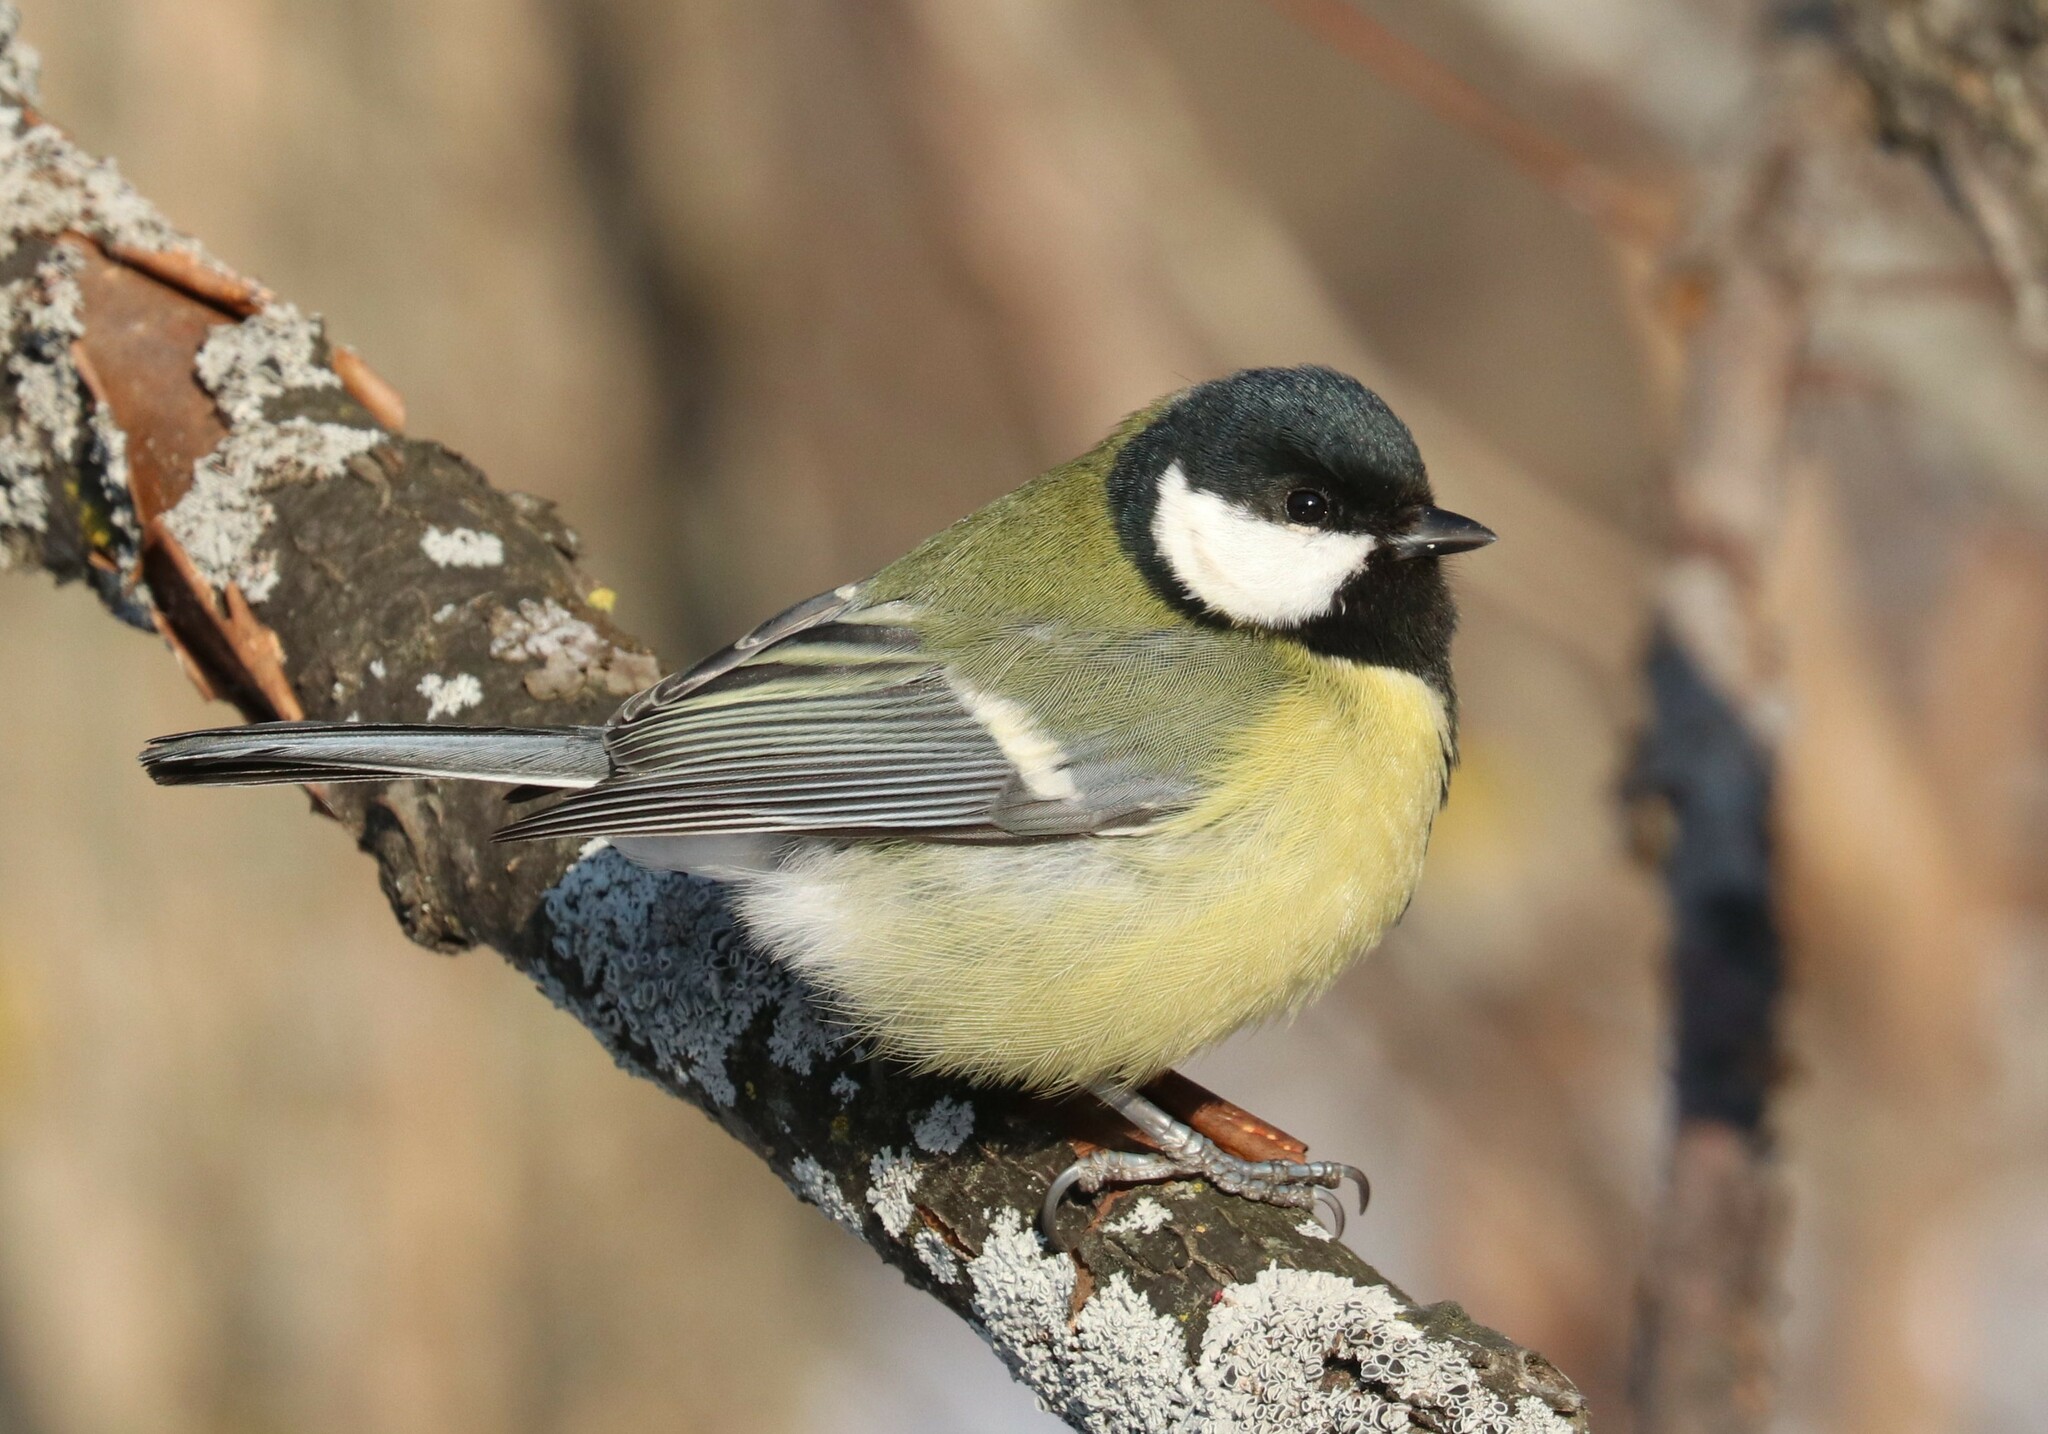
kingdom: Animalia
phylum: Chordata
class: Aves
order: Passeriformes
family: Paridae
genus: Parus
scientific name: Parus major
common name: Great tit
